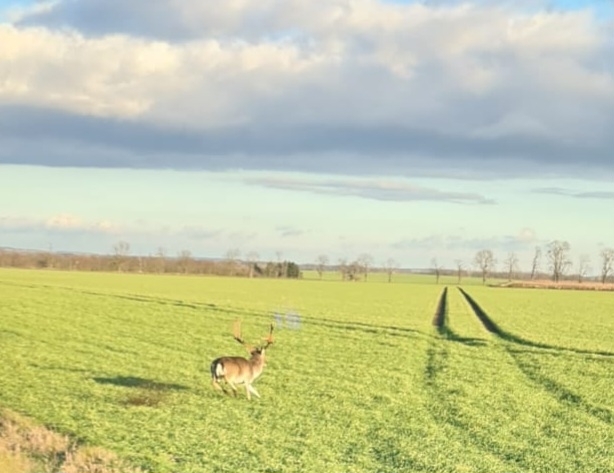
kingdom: Animalia
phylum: Chordata
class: Mammalia
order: Artiodactyla
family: Cervidae
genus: Dama
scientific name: Dama dama
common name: Fallow deer
